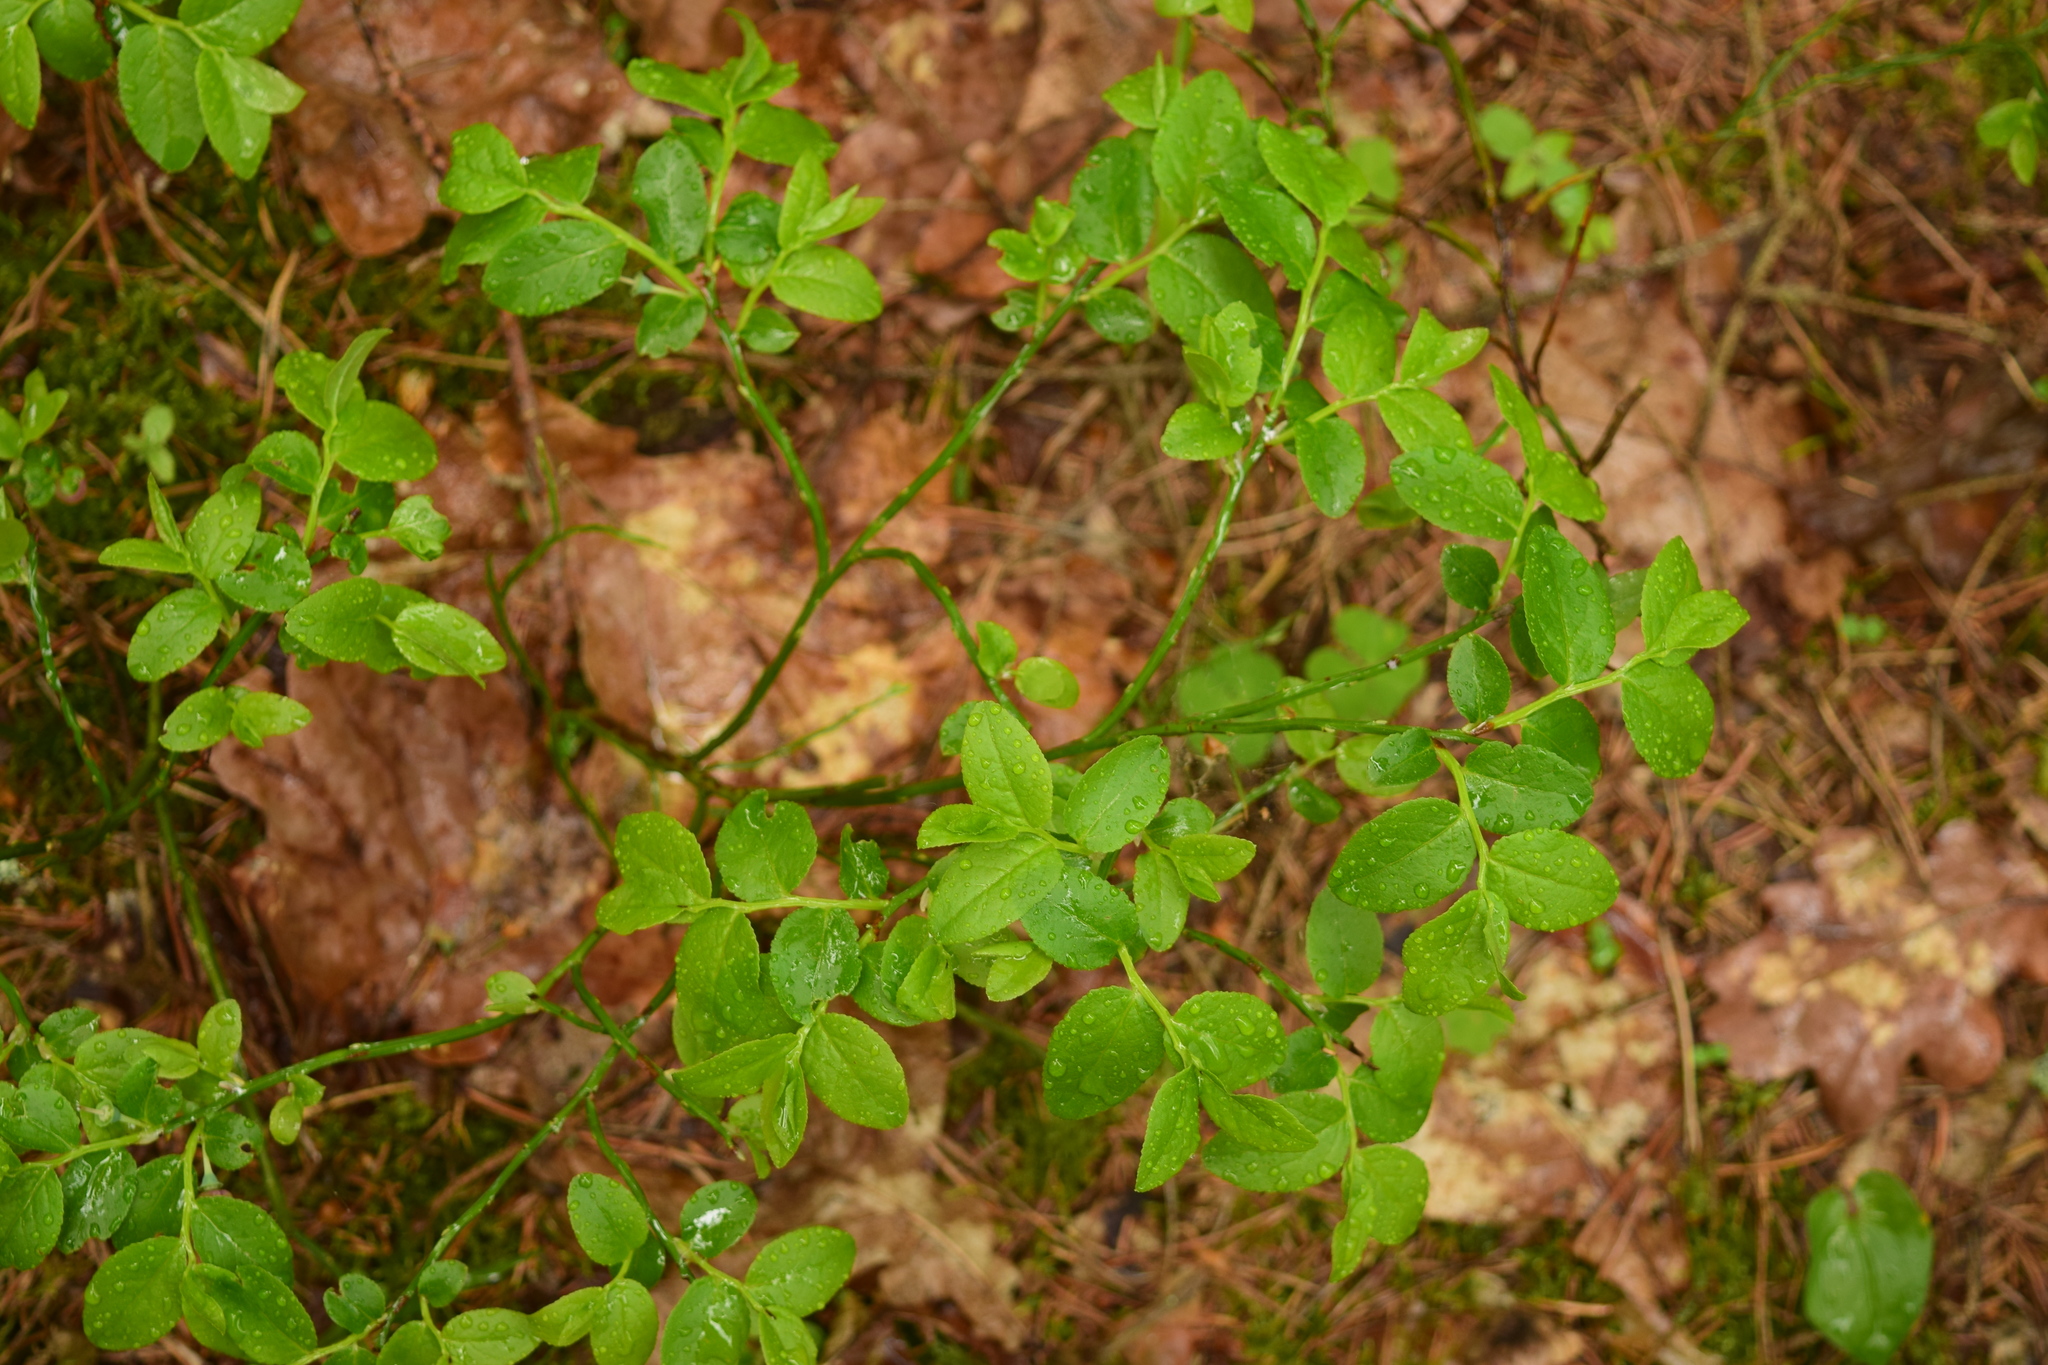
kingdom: Plantae
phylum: Tracheophyta
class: Magnoliopsida
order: Ericales
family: Ericaceae
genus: Vaccinium
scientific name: Vaccinium myrtillus
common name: Bilberry
